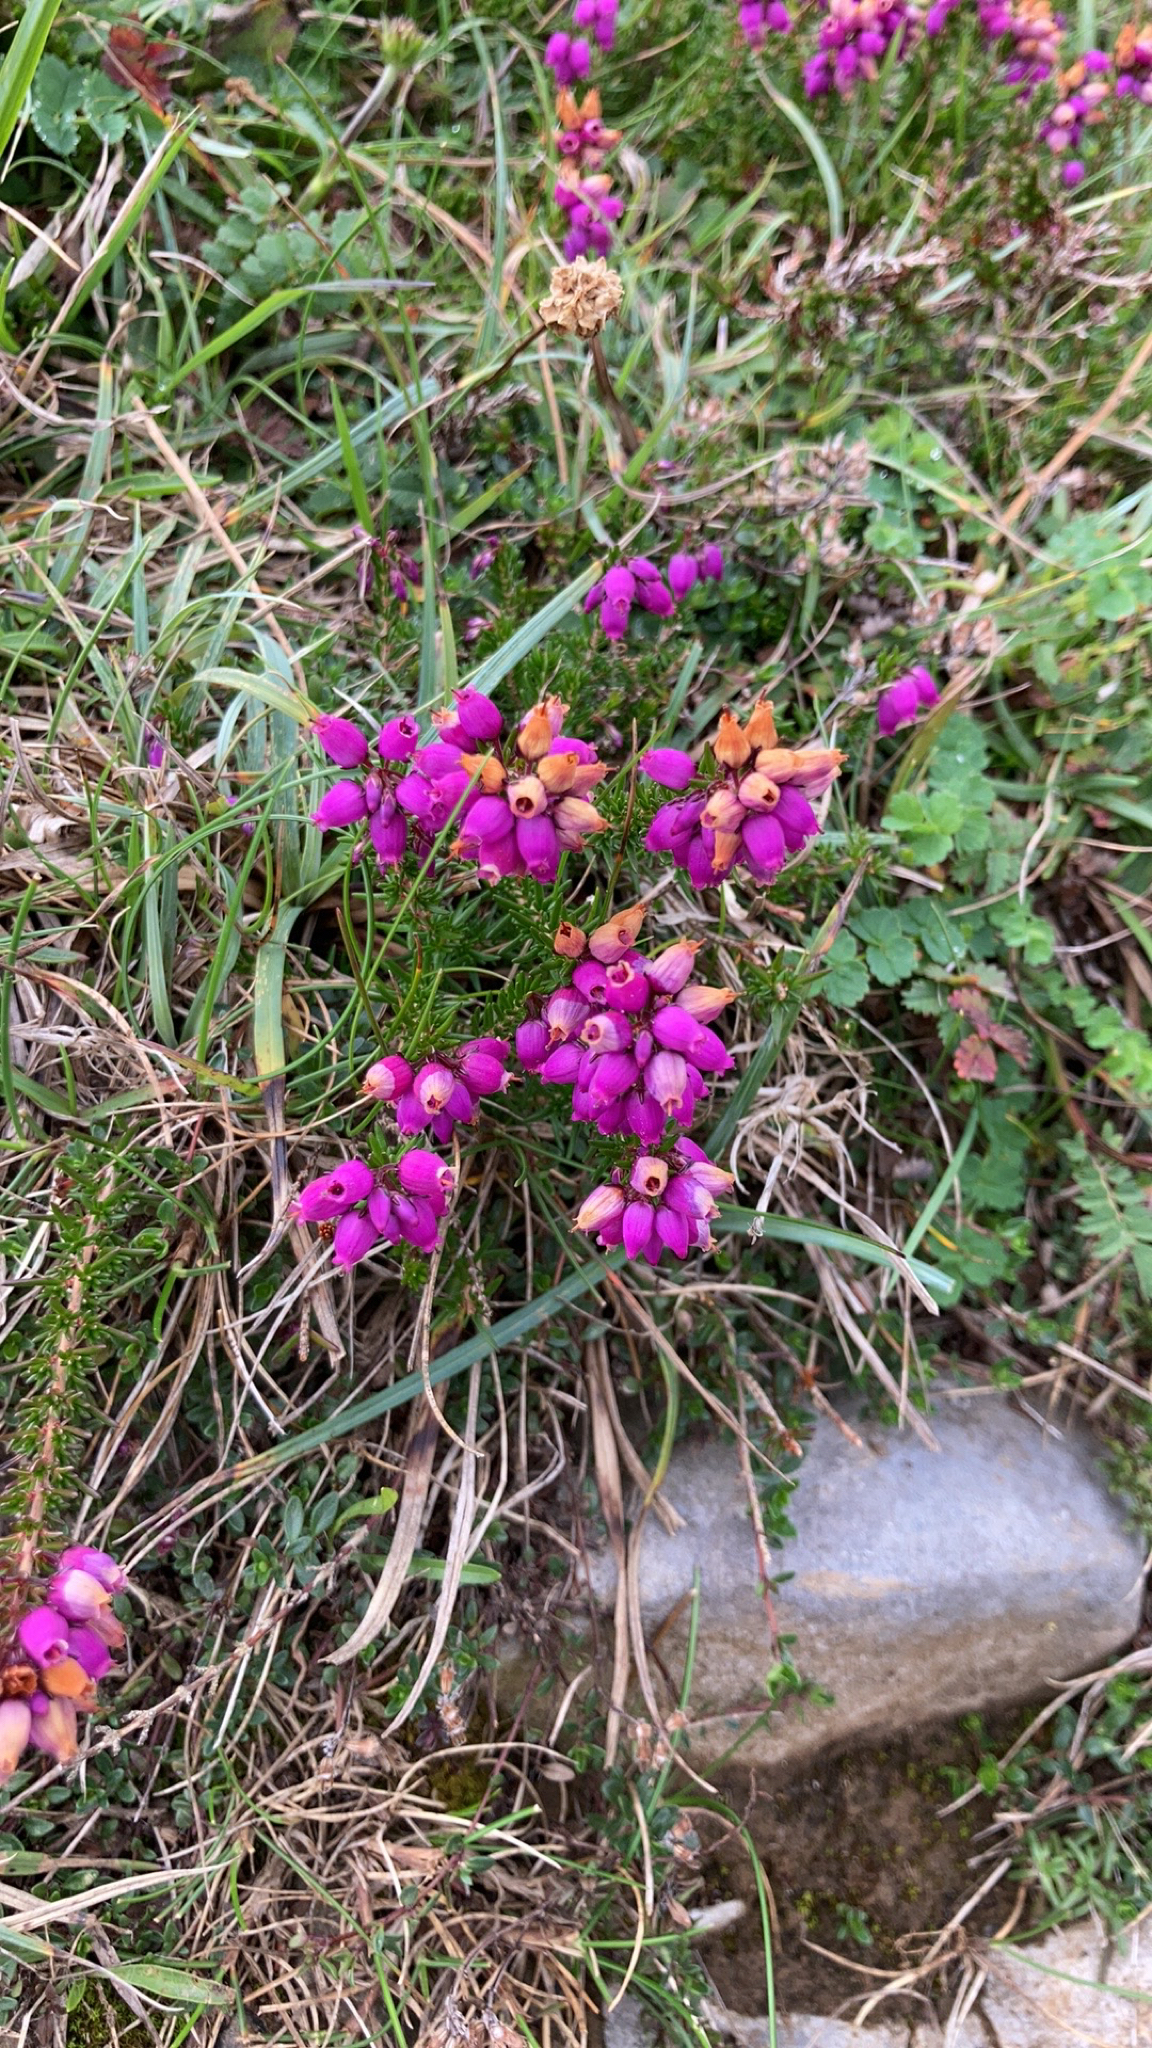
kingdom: Plantae
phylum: Tracheophyta
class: Magnoliopsida
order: Ericales
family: Ericaceae
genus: Erica
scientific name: Erica cinerea
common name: Bell heather
